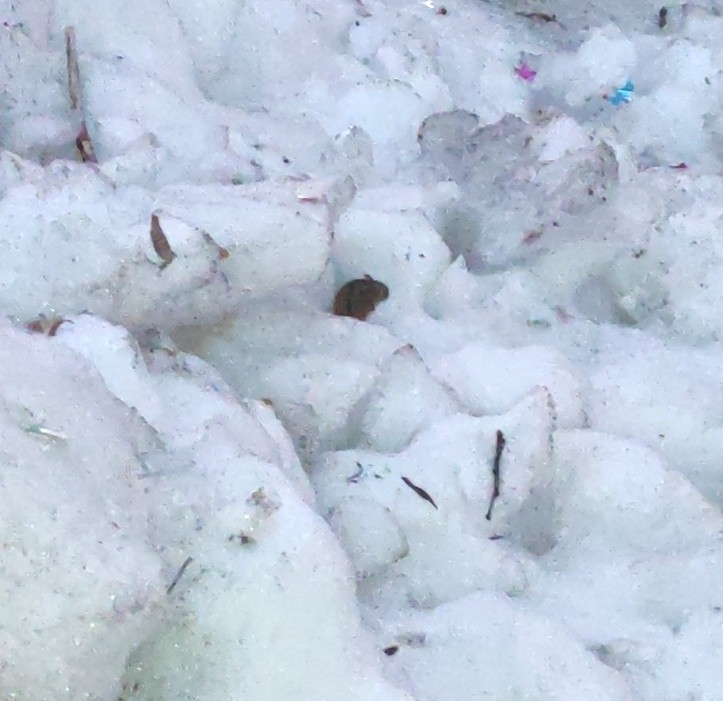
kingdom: Animalia
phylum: Chordata
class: Mammalia
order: Rodentia
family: Muridae
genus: Apodemus
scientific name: Apodemus agrarius
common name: Striped field mouse
